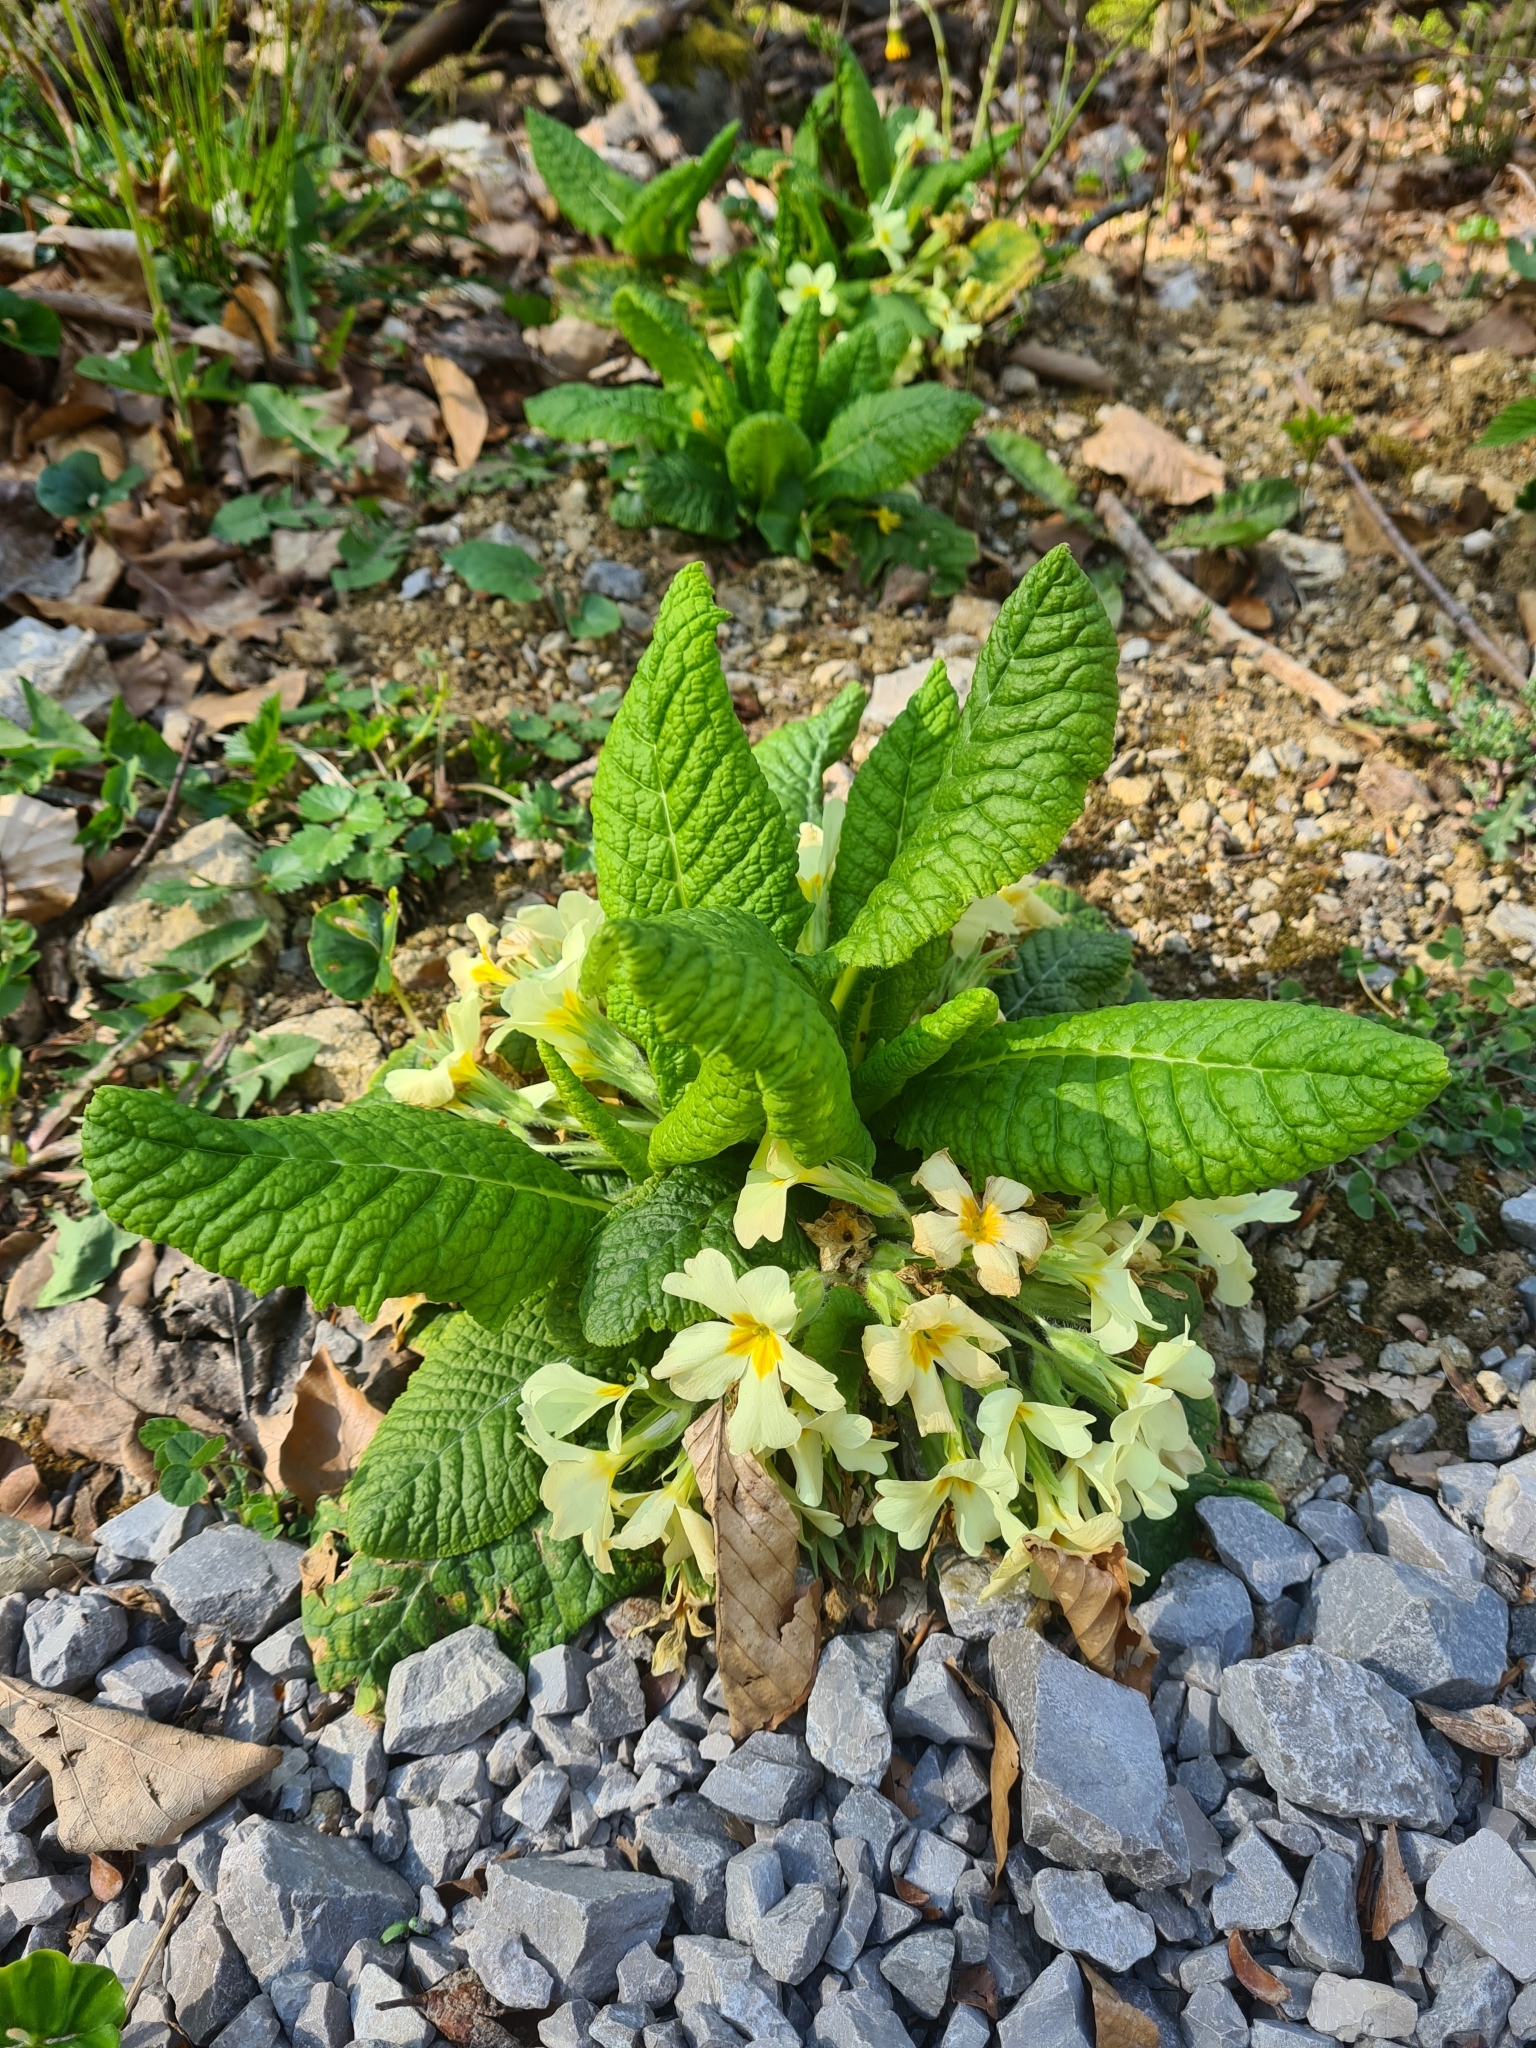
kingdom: Plantae
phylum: Tracheophyta
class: Magnoliopsida
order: Ericales
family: Primulaceae
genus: Primula
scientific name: Primula vulgaris
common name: Primrose
